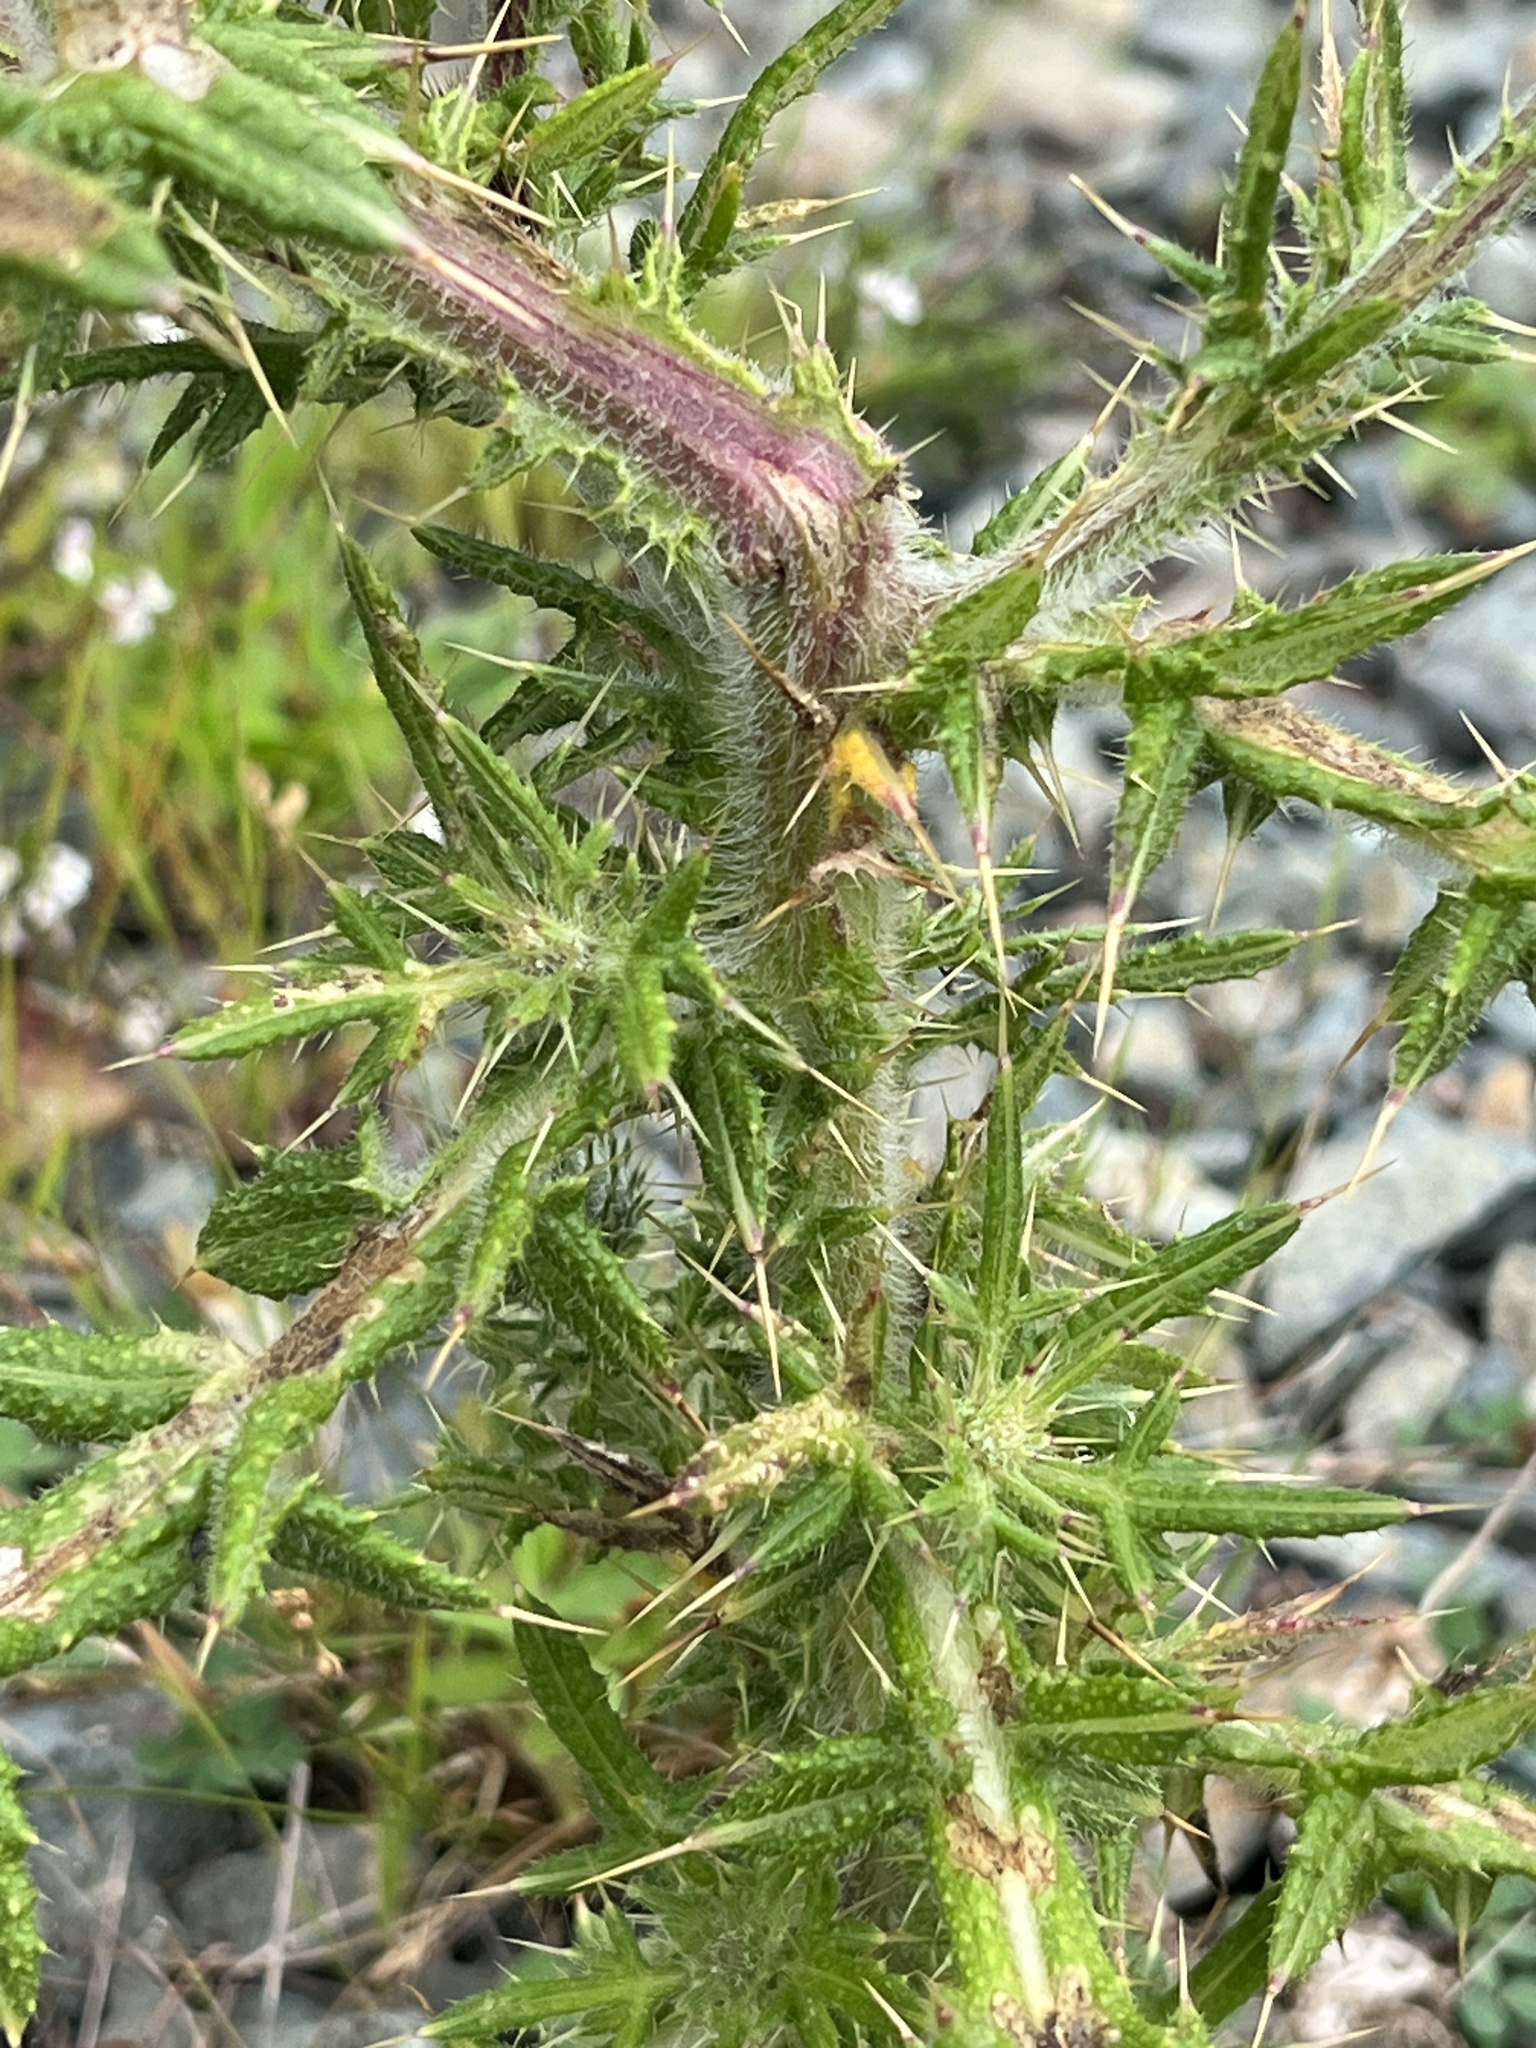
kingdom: Plantae
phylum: Tracheophyta
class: Magnoliopsida
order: Asterales
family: Asteraceae
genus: Cirsium
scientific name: Cirsium vulgare
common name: Bull thistle
